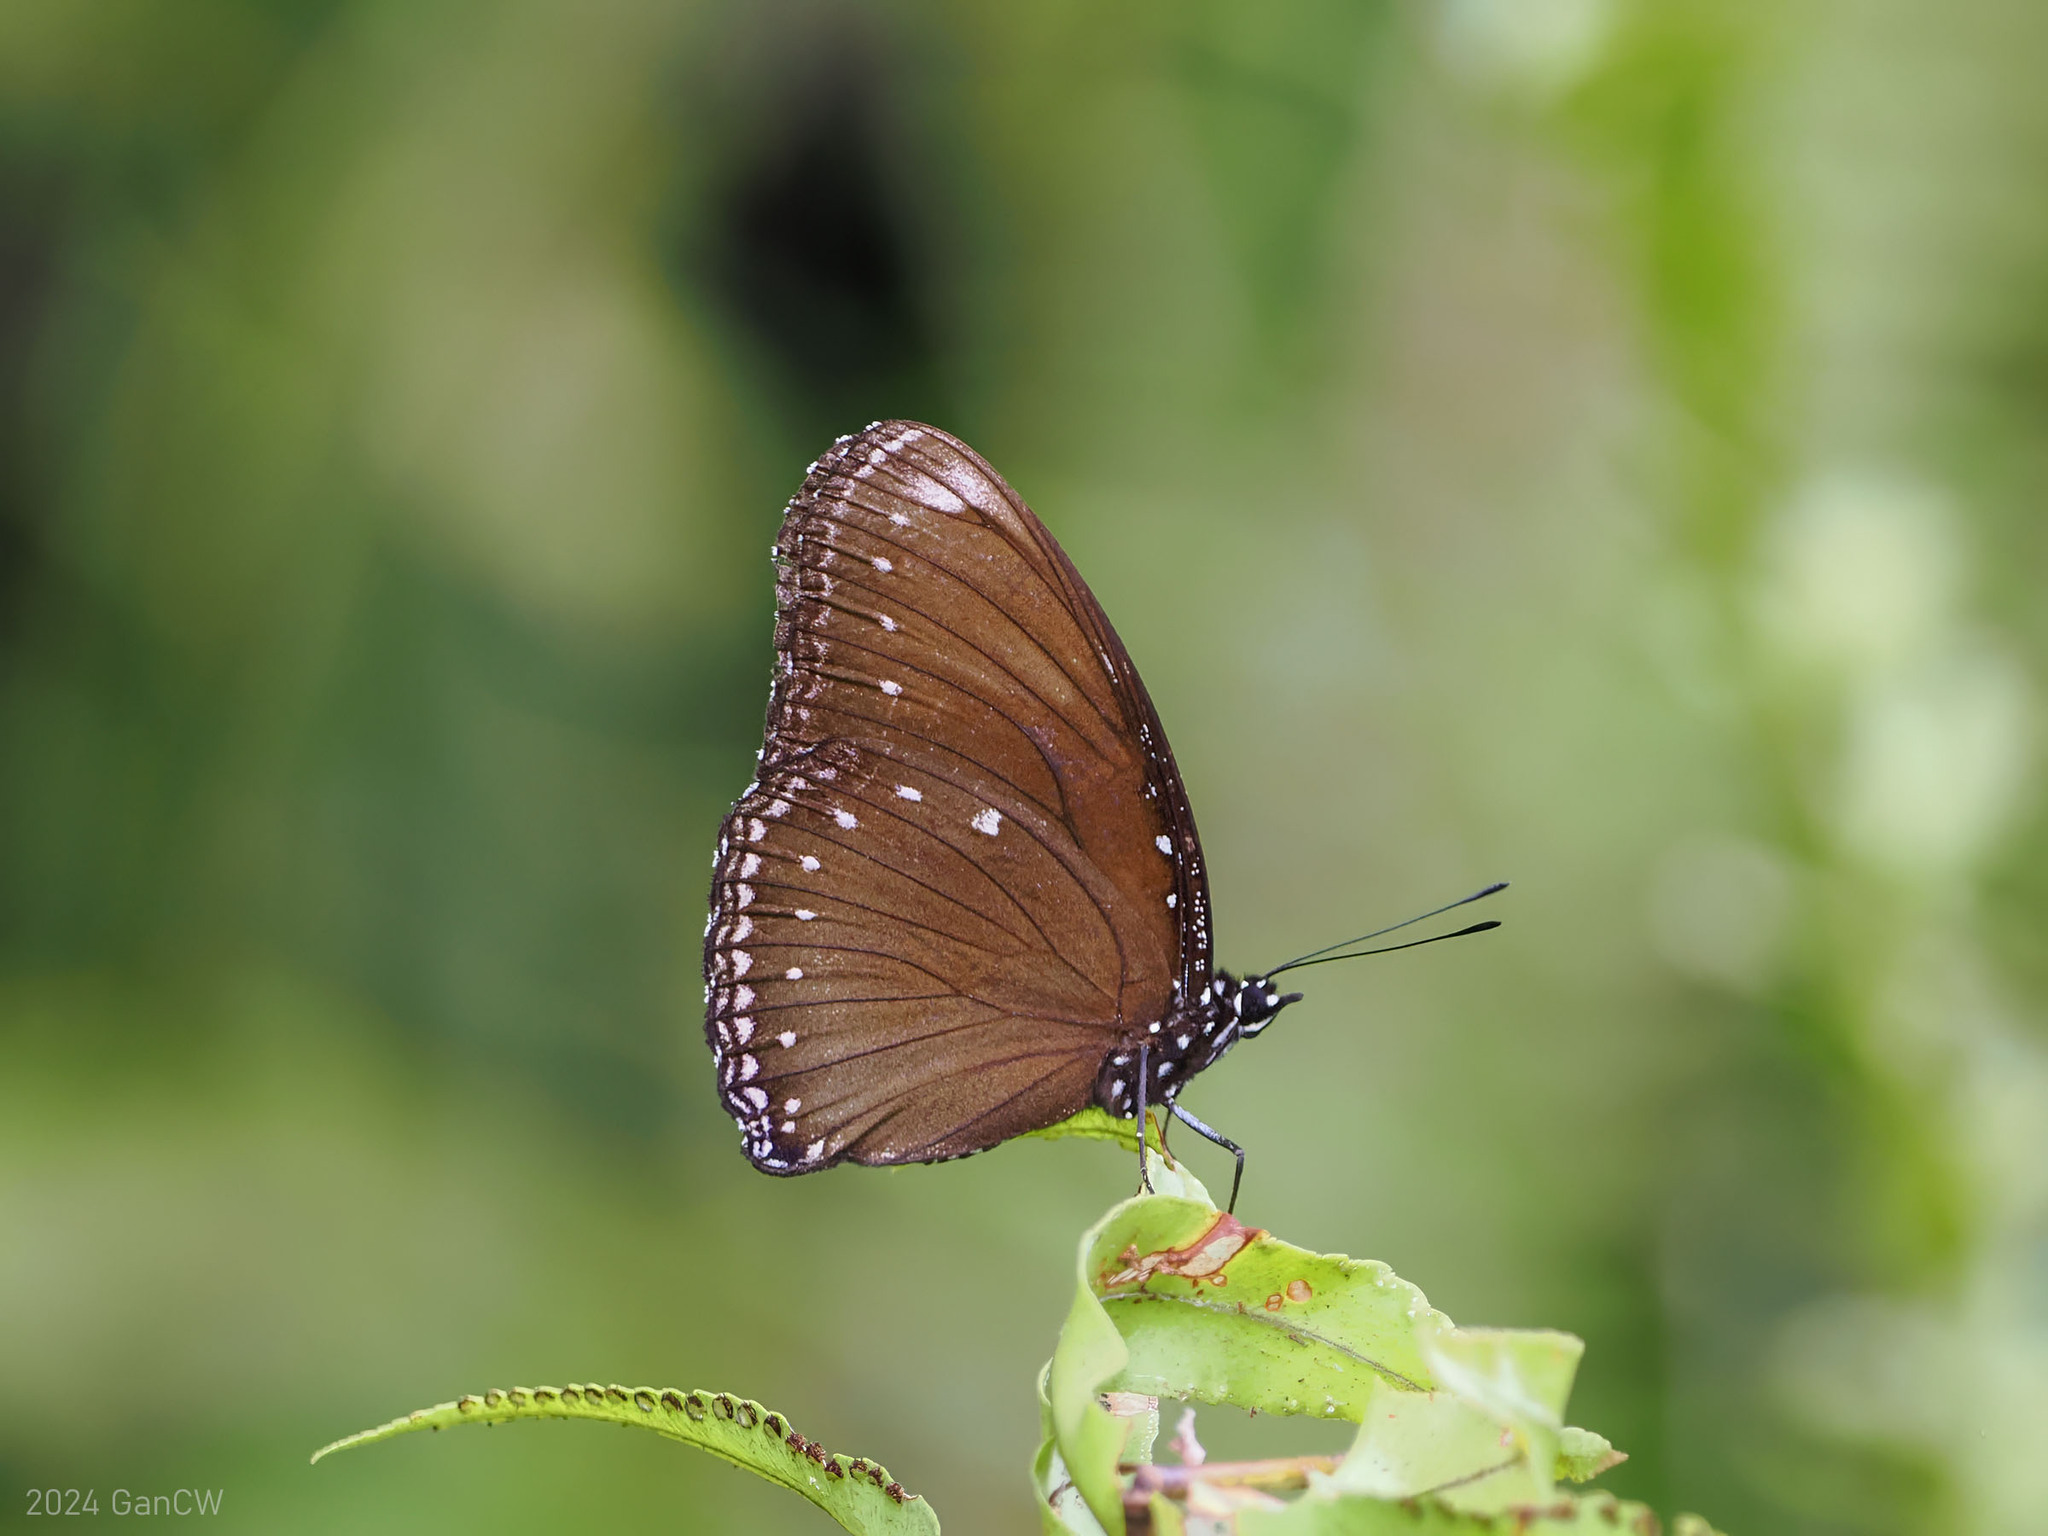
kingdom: Animalia
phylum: Arthropoda
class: Insecta
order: Lepidoptera
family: Nymphalidae
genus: Hypolimnas
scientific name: Hypolimnas anomala
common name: Malayan eggfly
